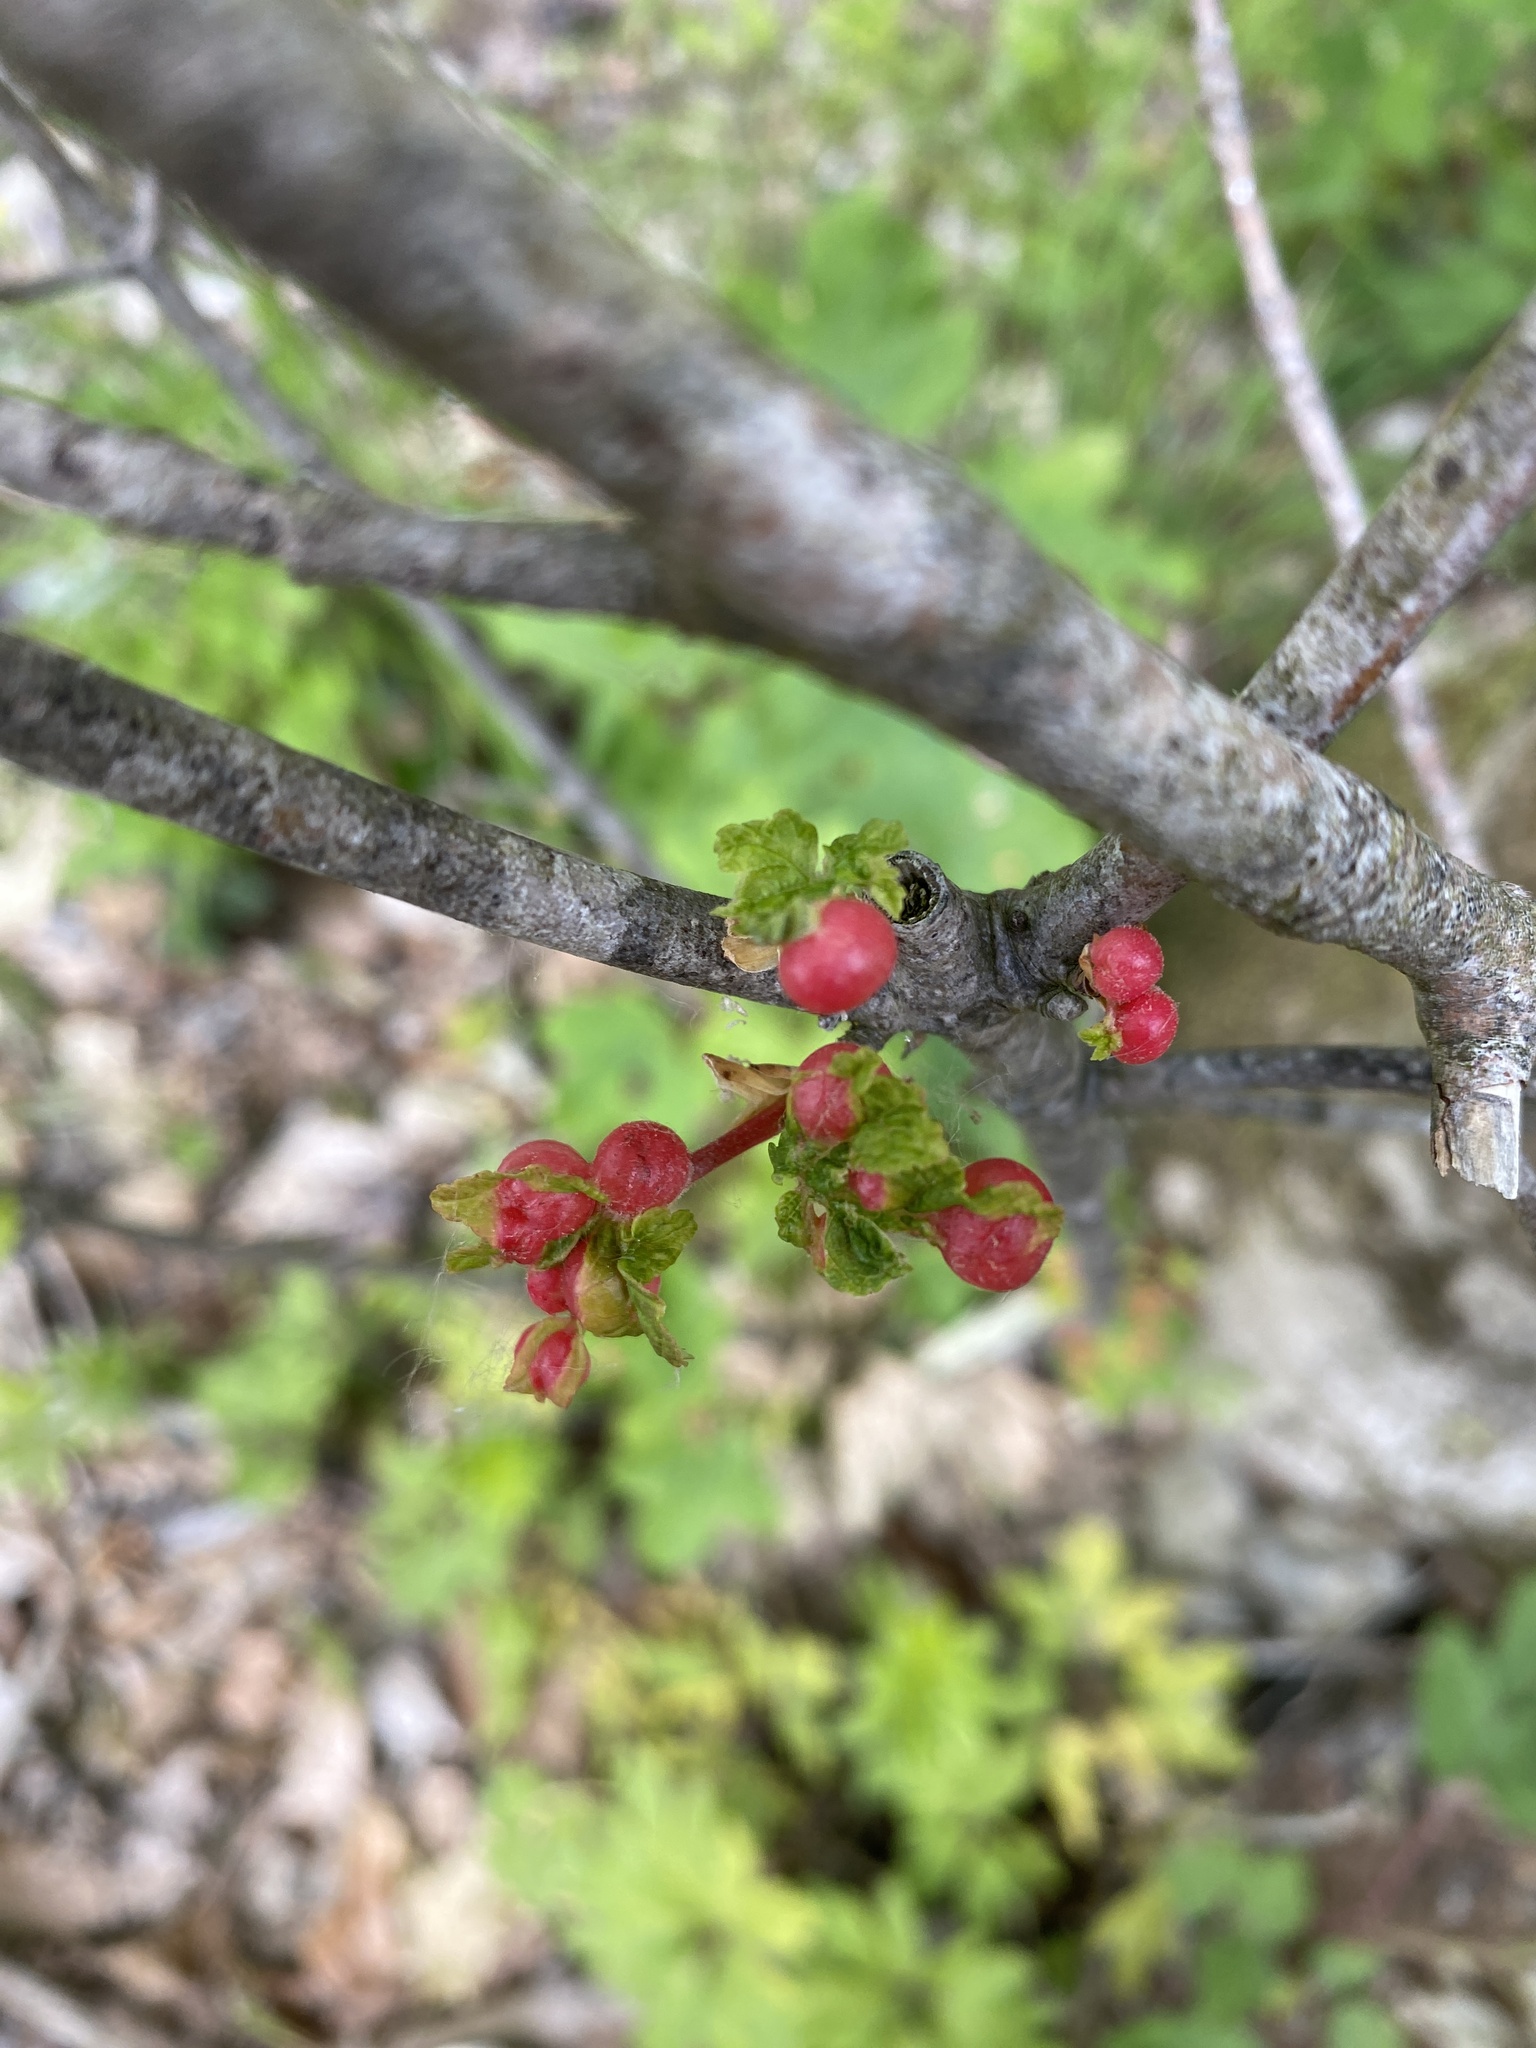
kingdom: Animalia
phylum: Arthropoda
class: Insecta
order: Hymenoptera
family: Cynipidae
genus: Pediaspis
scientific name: Pediaspis aceris
